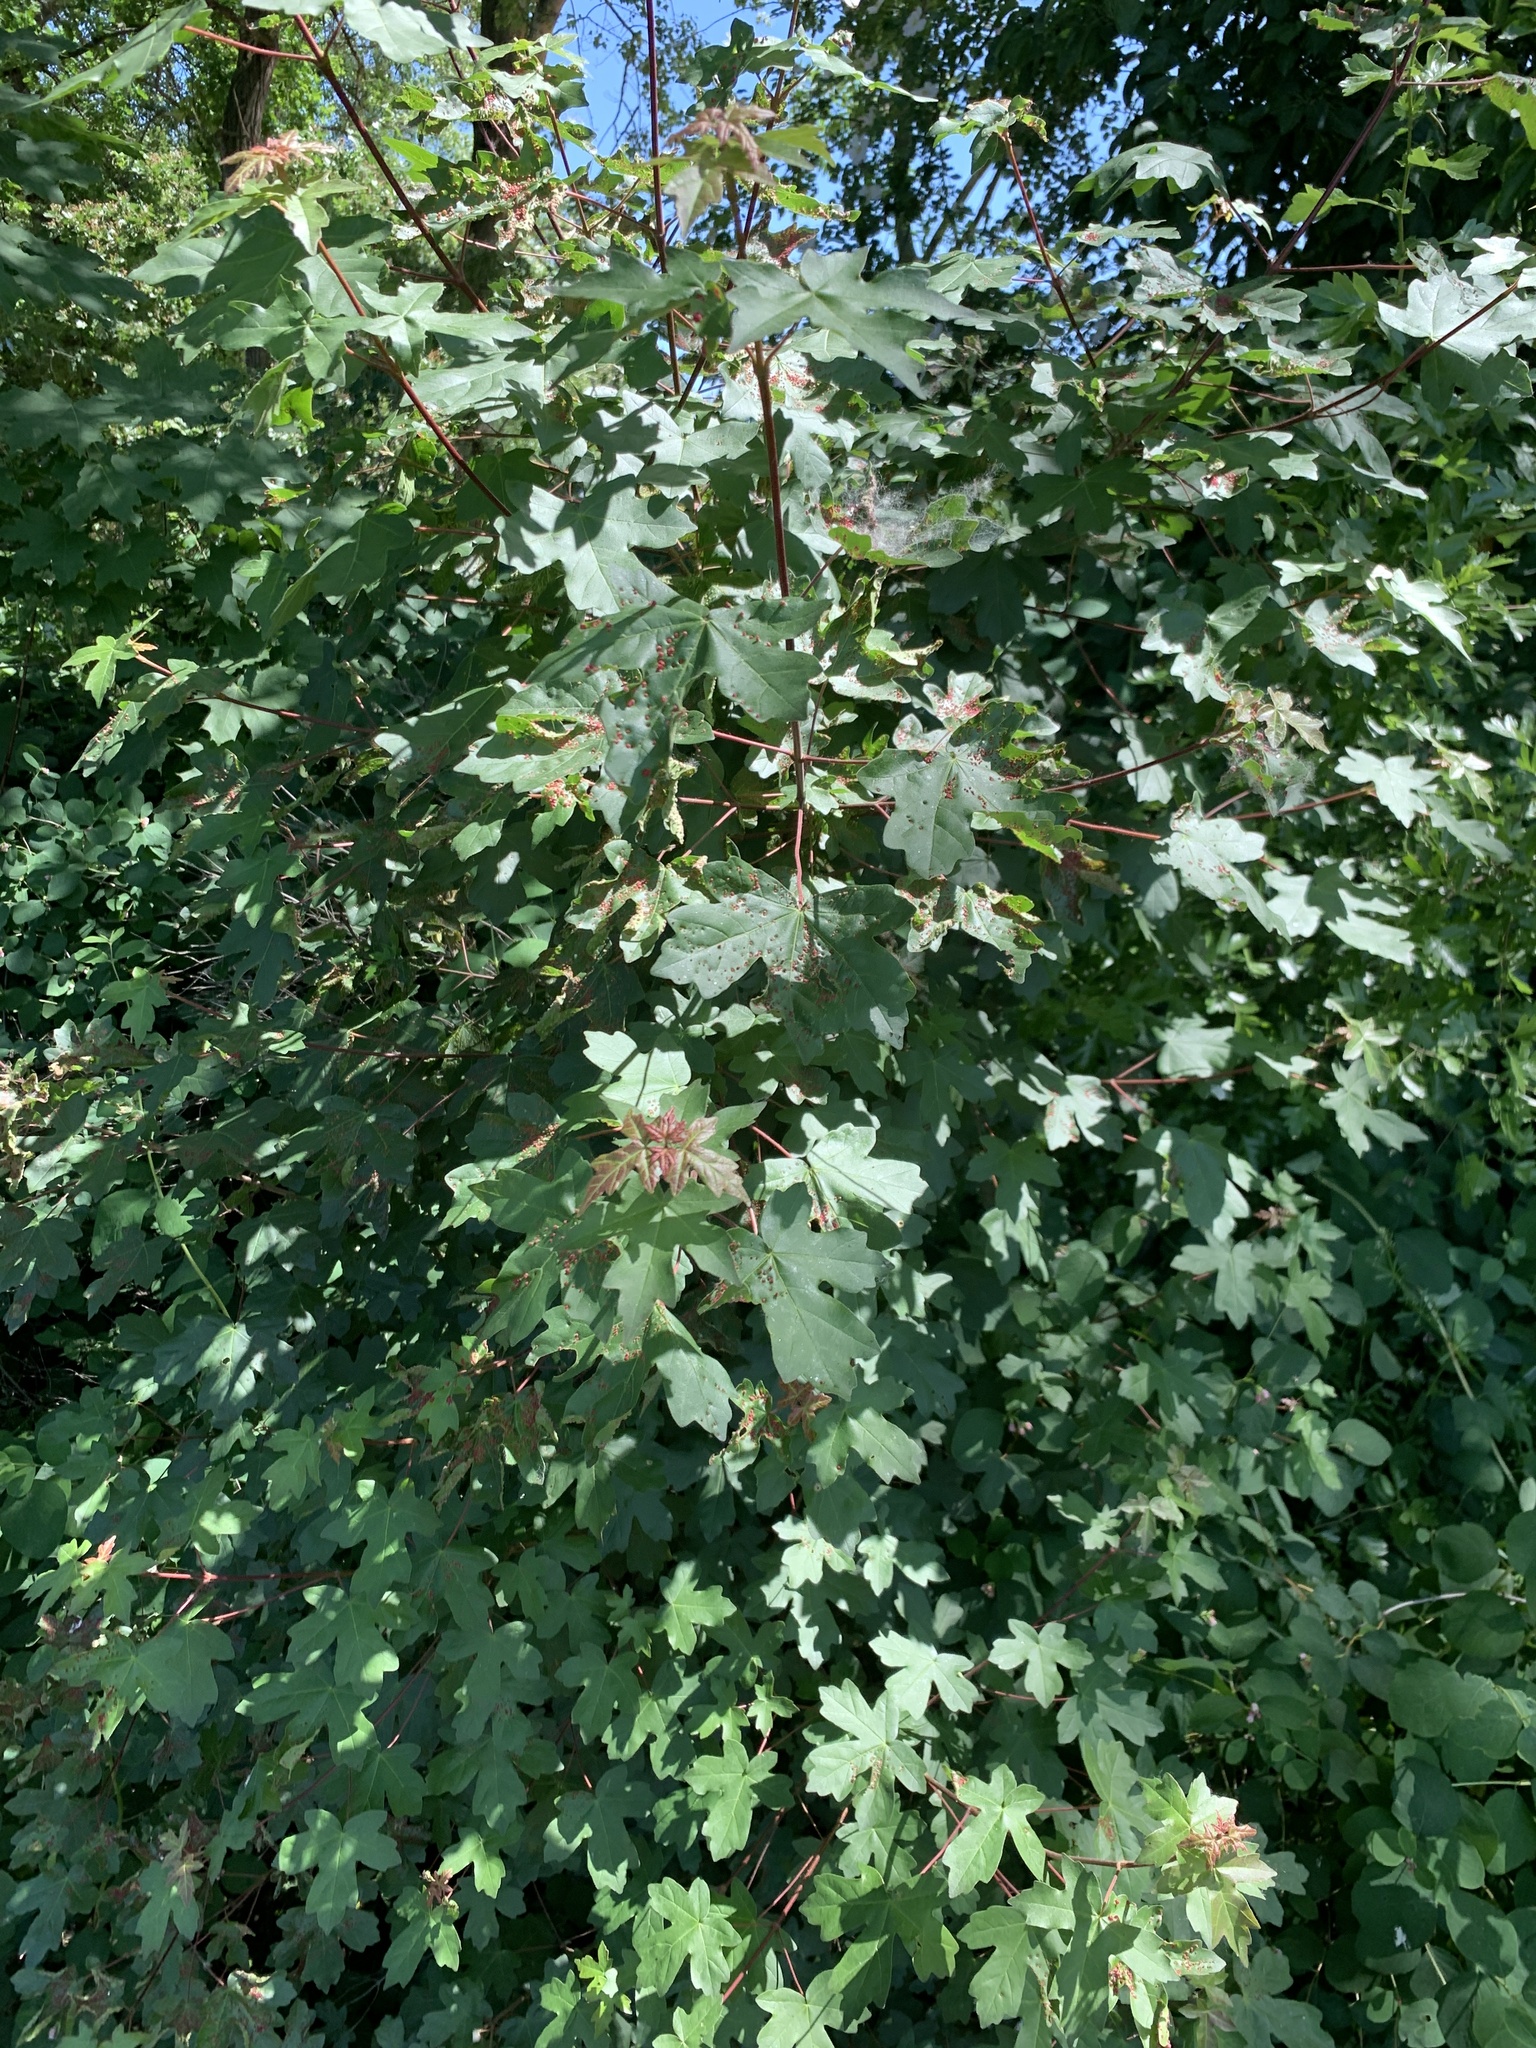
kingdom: Plantae
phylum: Tracheophyta
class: Magnoliopsida
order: Sapindales
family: Sapindaceae
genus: Acer
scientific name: Acer campestre
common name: Field maple
